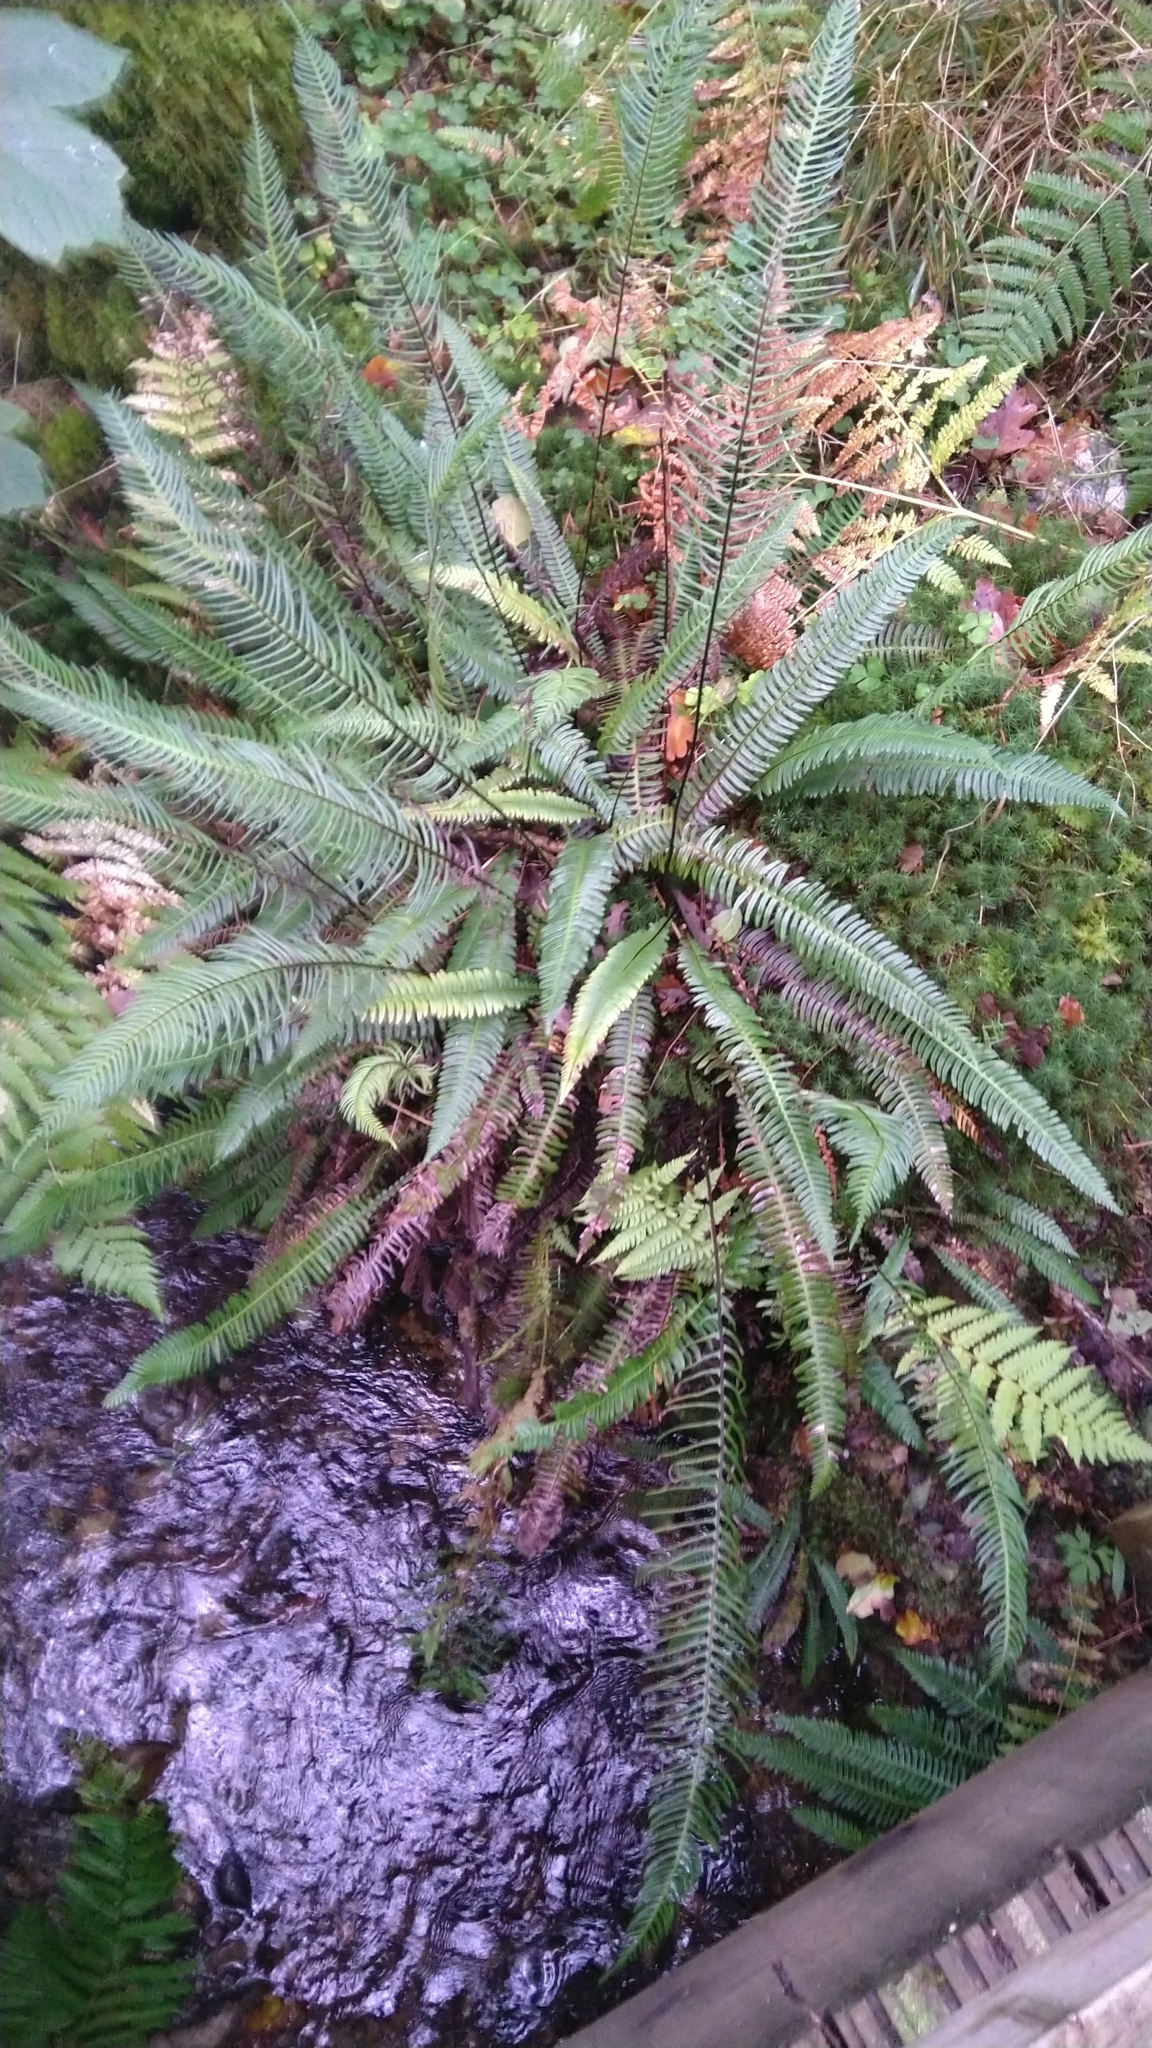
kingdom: Plantae
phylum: Tracheophyta
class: Polypodiopsida
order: Polypodiales
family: Blechnaceae
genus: Struthiopteris
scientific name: Struthiopteris spicant
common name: Deer fern
